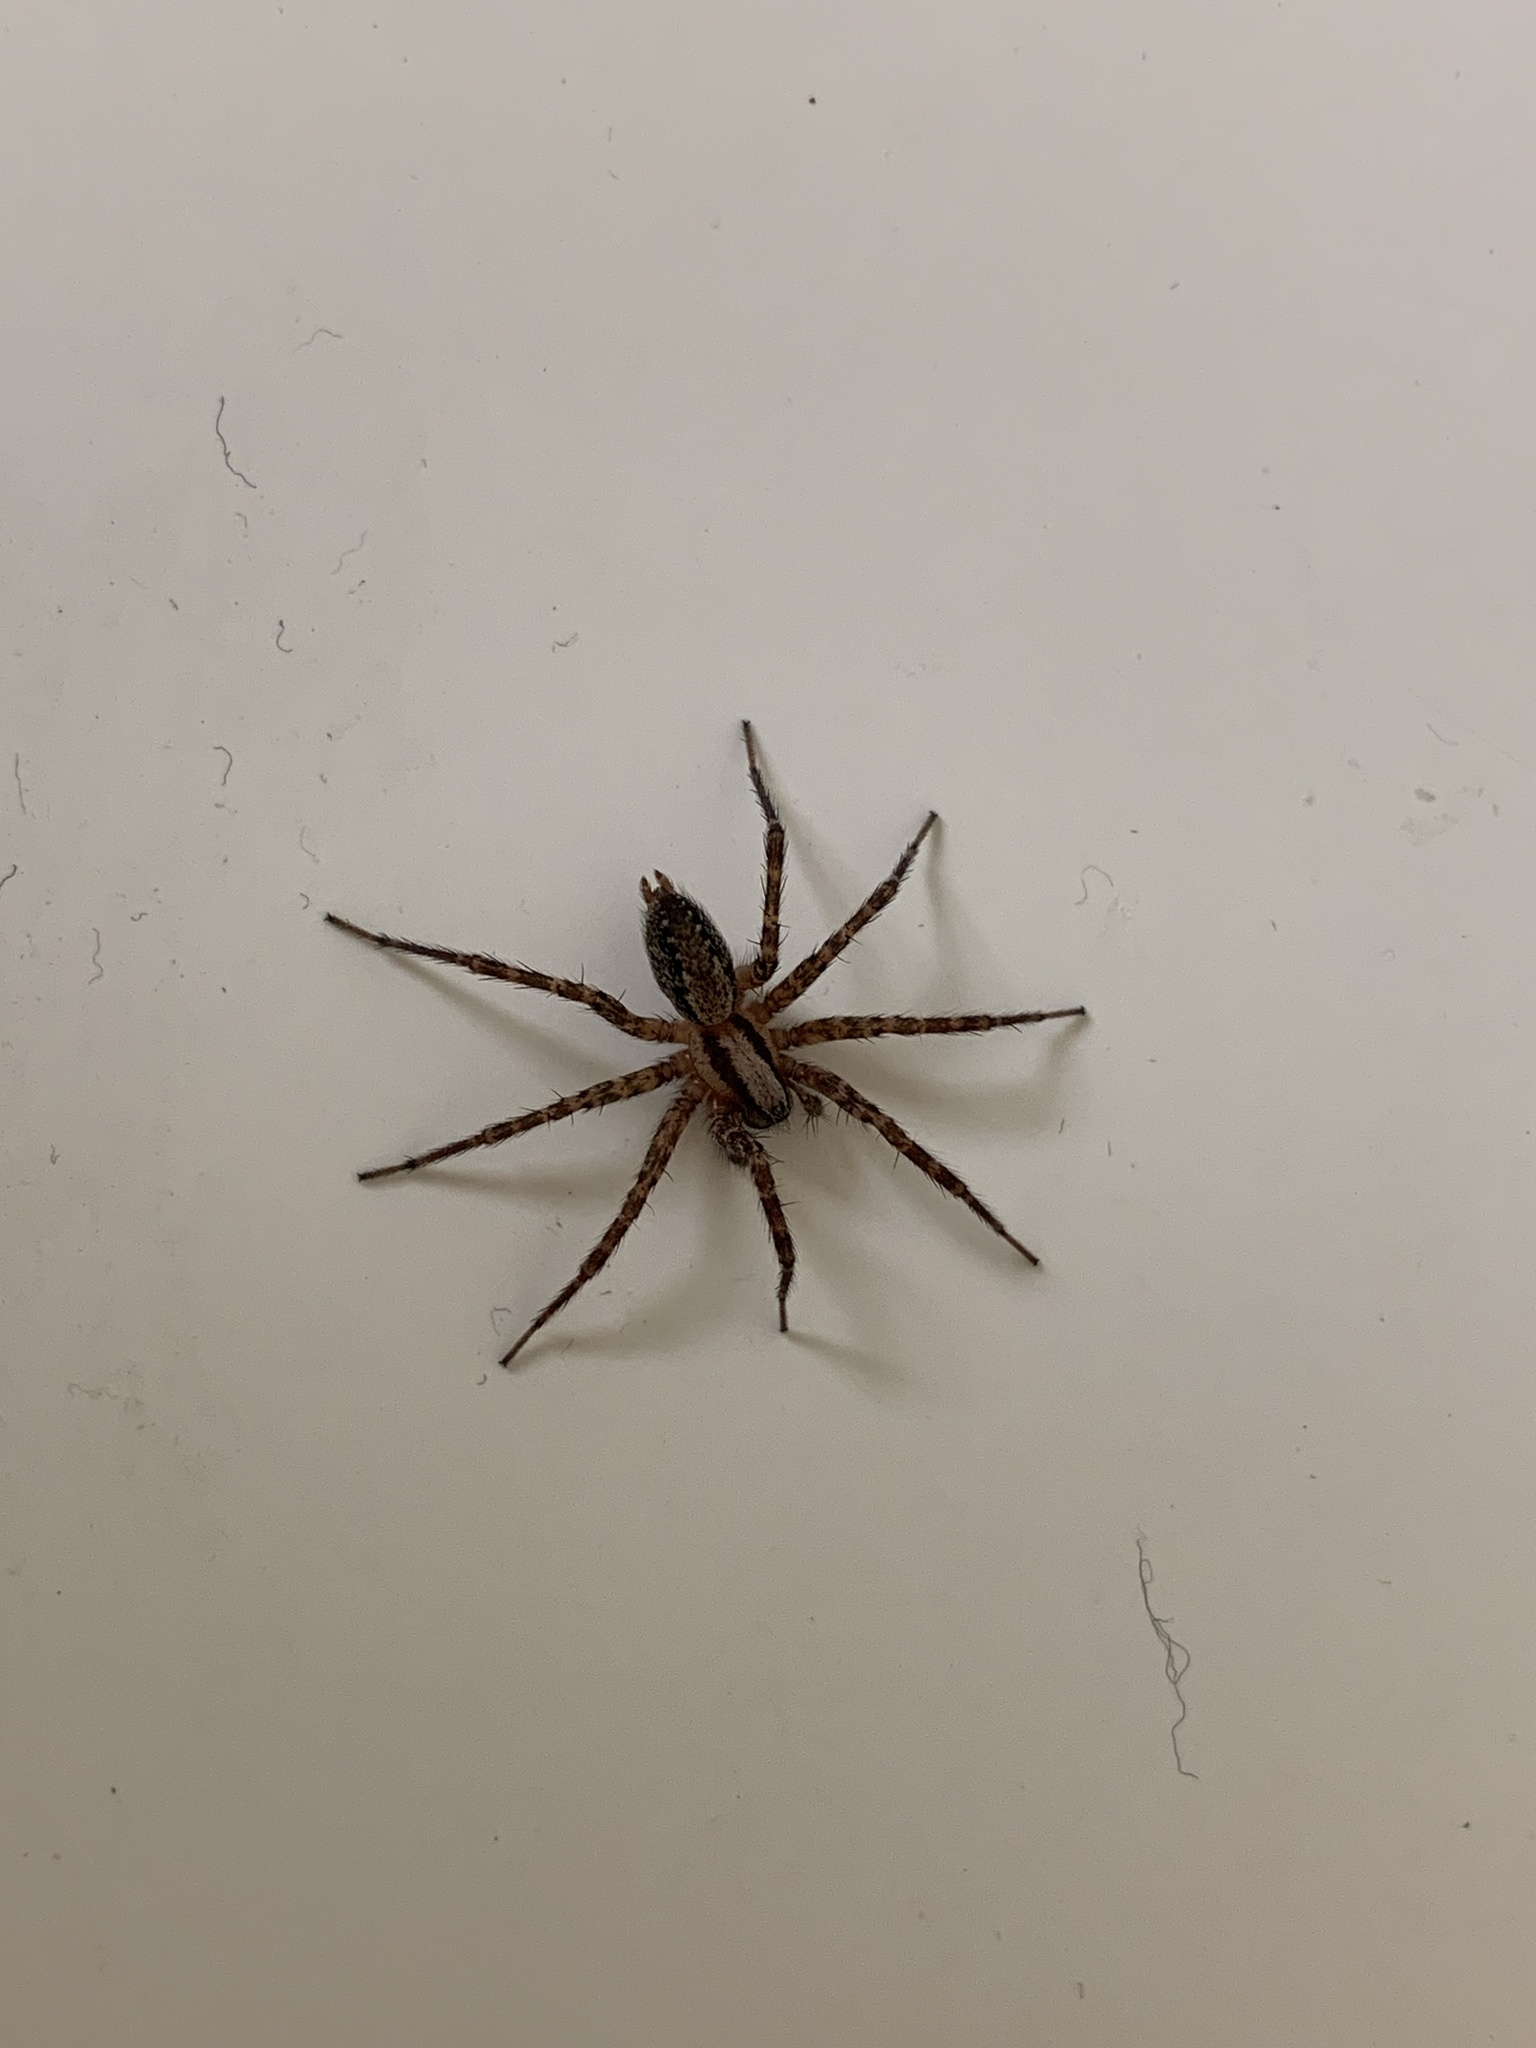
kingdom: Animalia
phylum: Arthropoda
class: Arachnida
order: Araneae
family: Agelenidae
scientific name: Agelenidae
